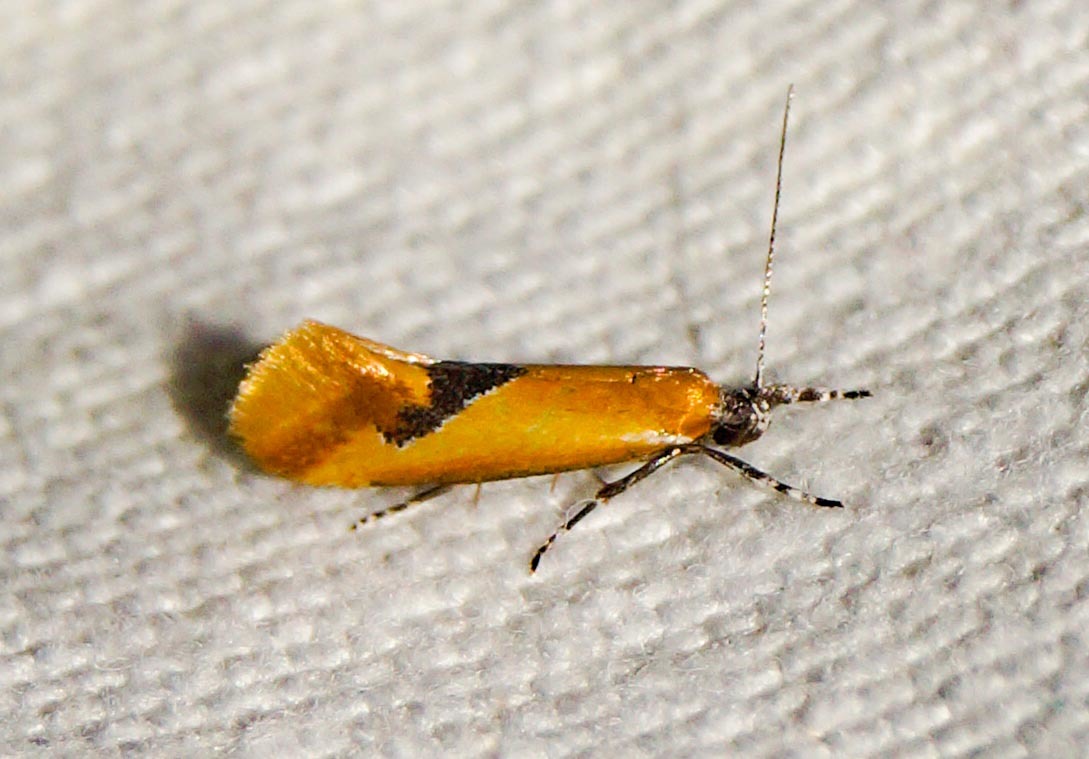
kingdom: Animalia
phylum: Arthropoda
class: Insecta
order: Lepidoptera
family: Oecophoridae
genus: Batia
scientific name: Batia lambdella
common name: Greater tawny tubic
